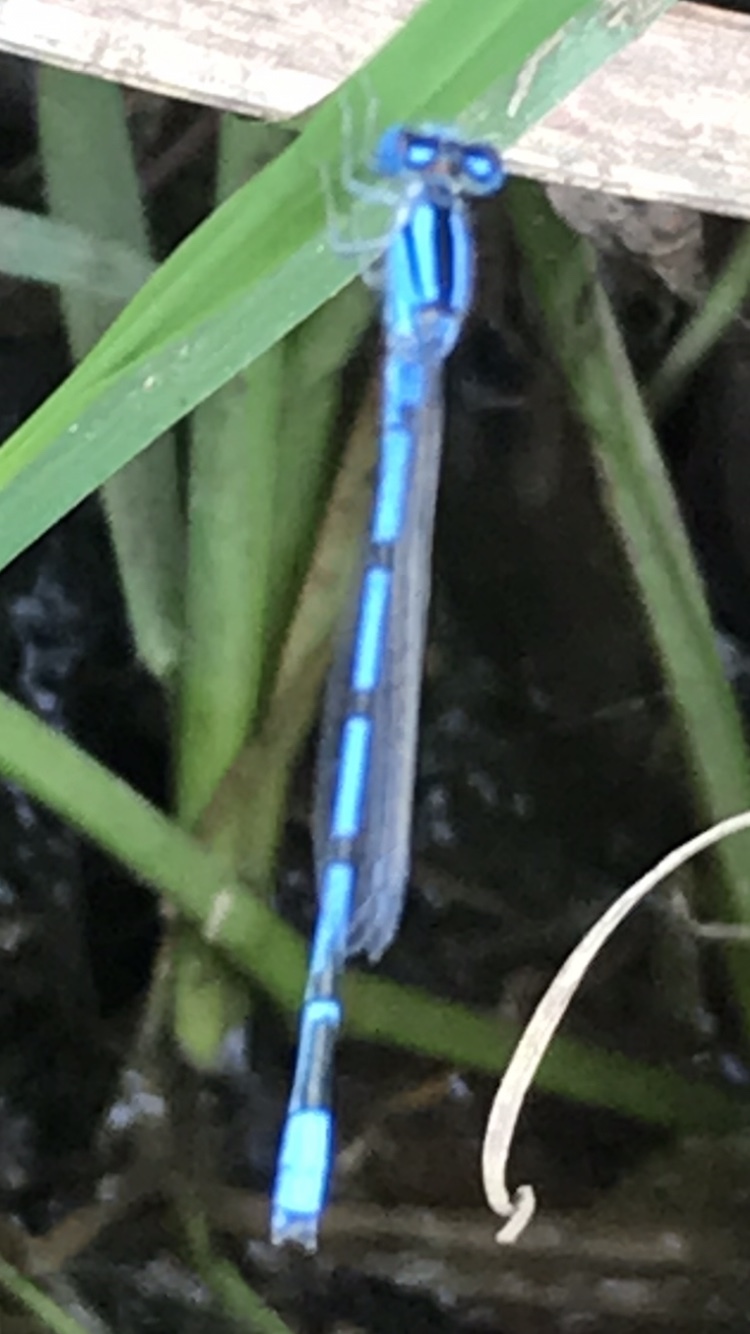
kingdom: Animalia
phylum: Arthropoda
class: Insecta
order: Odonata
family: Coenagrionidae
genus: Enallagma
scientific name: Enallagma civile
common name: Damselfly
